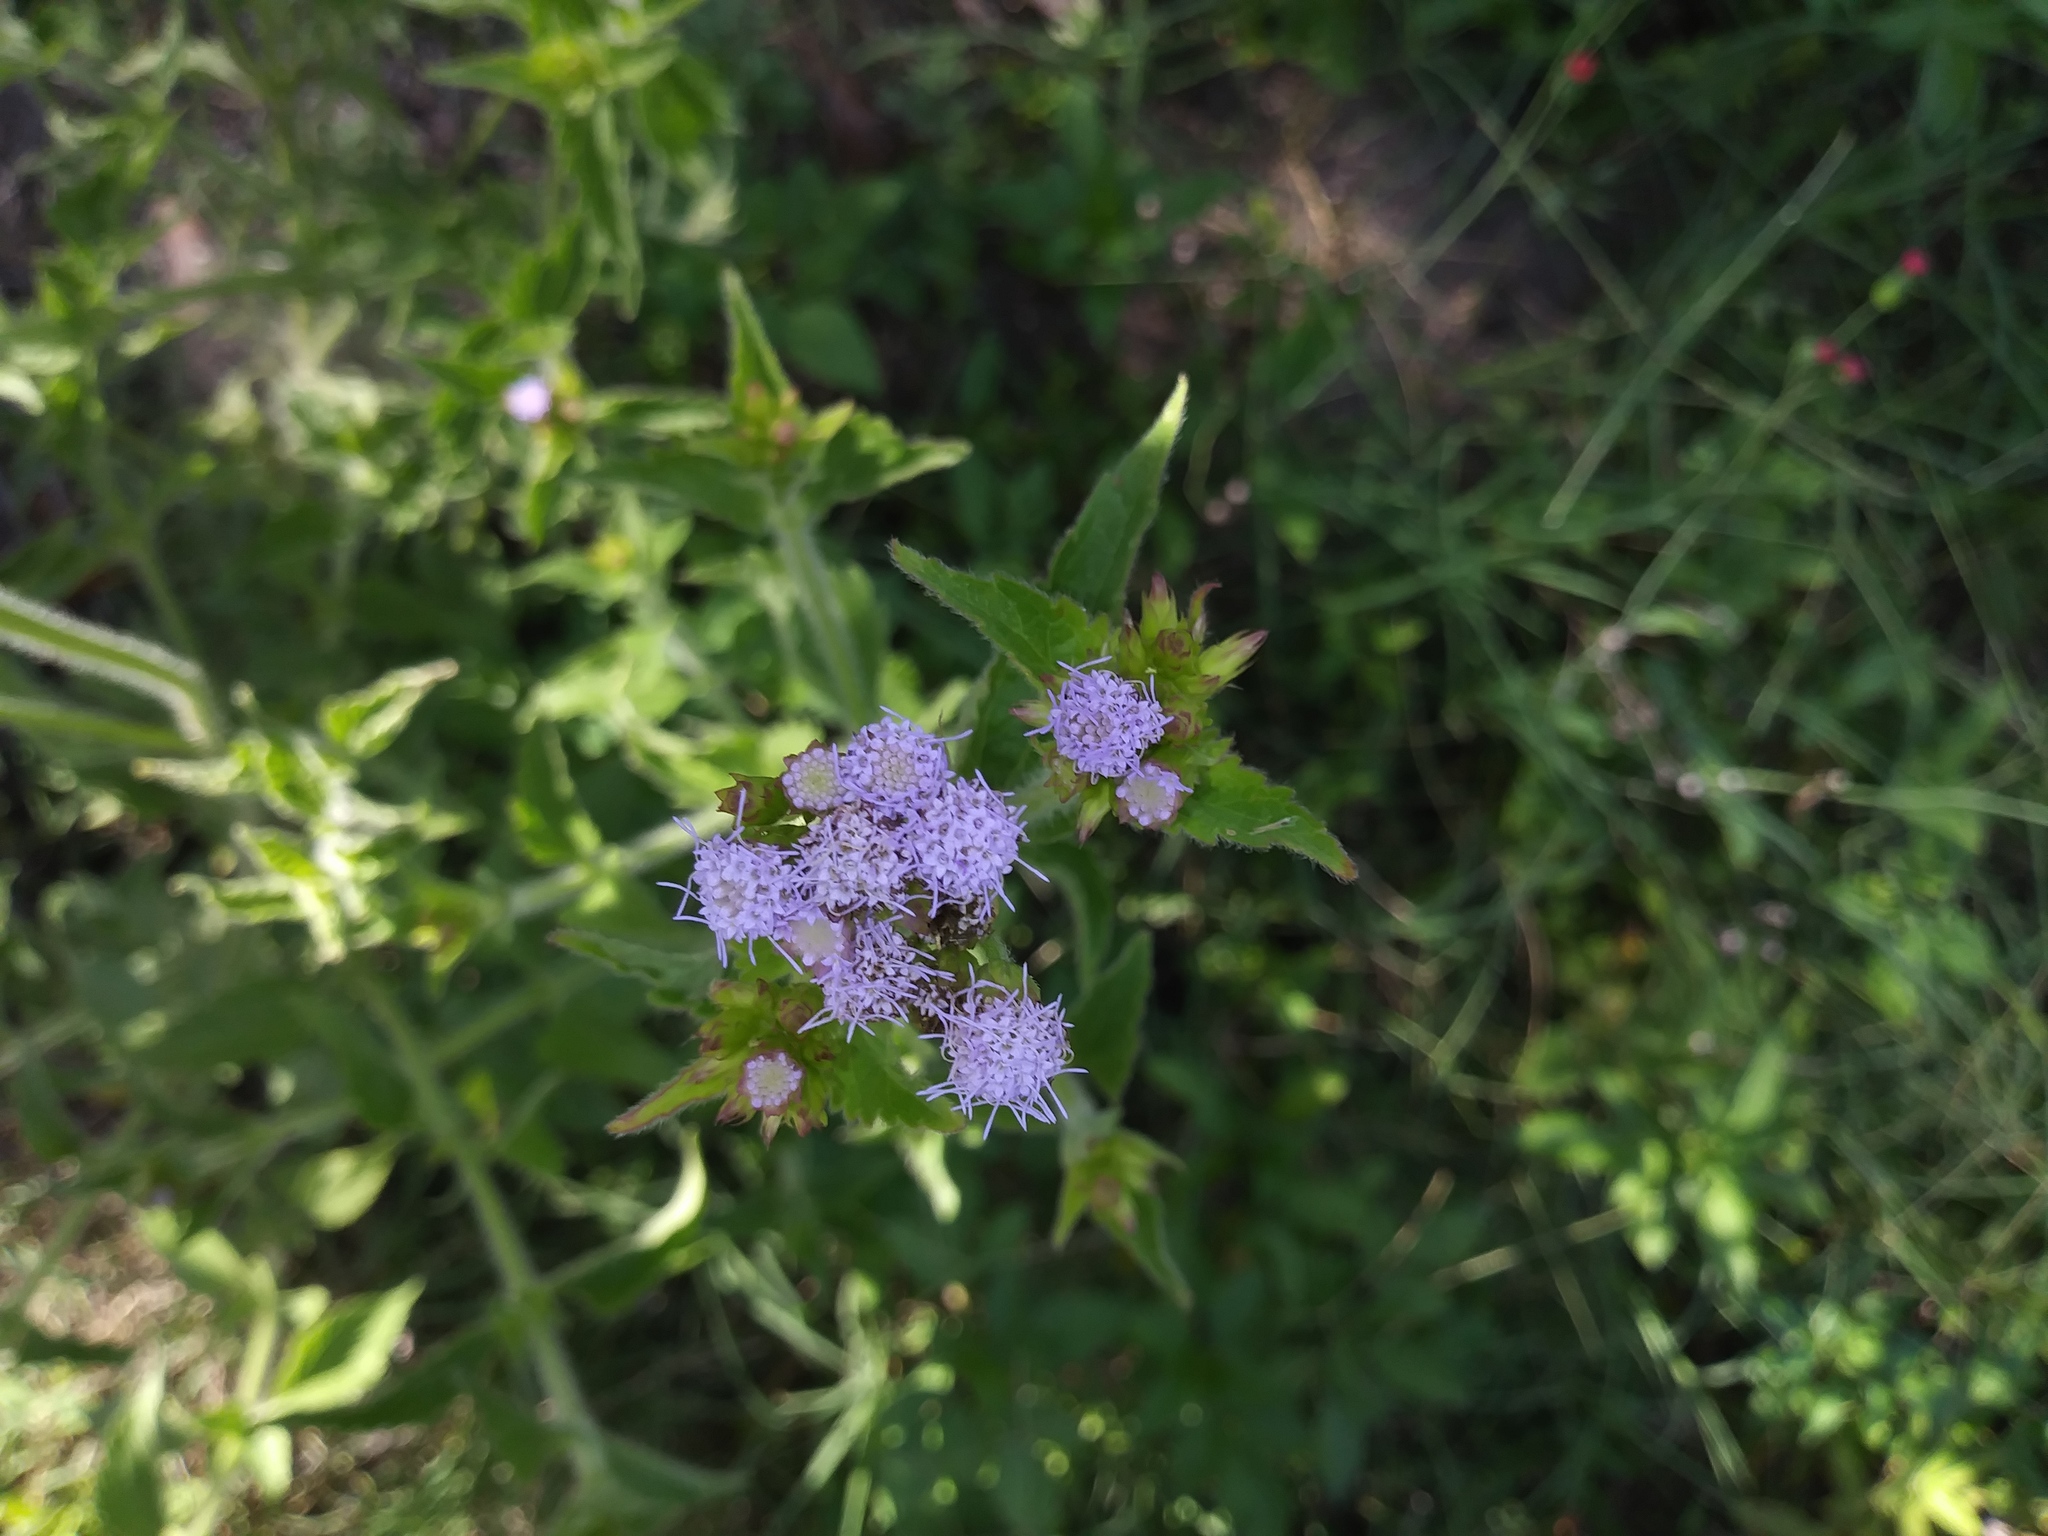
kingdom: Plantae
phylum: Tracheophyta
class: Magnoliopsida
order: Asterales
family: Asteraceae
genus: Praxelis
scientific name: Praxelis clematidea
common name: Praxelis
